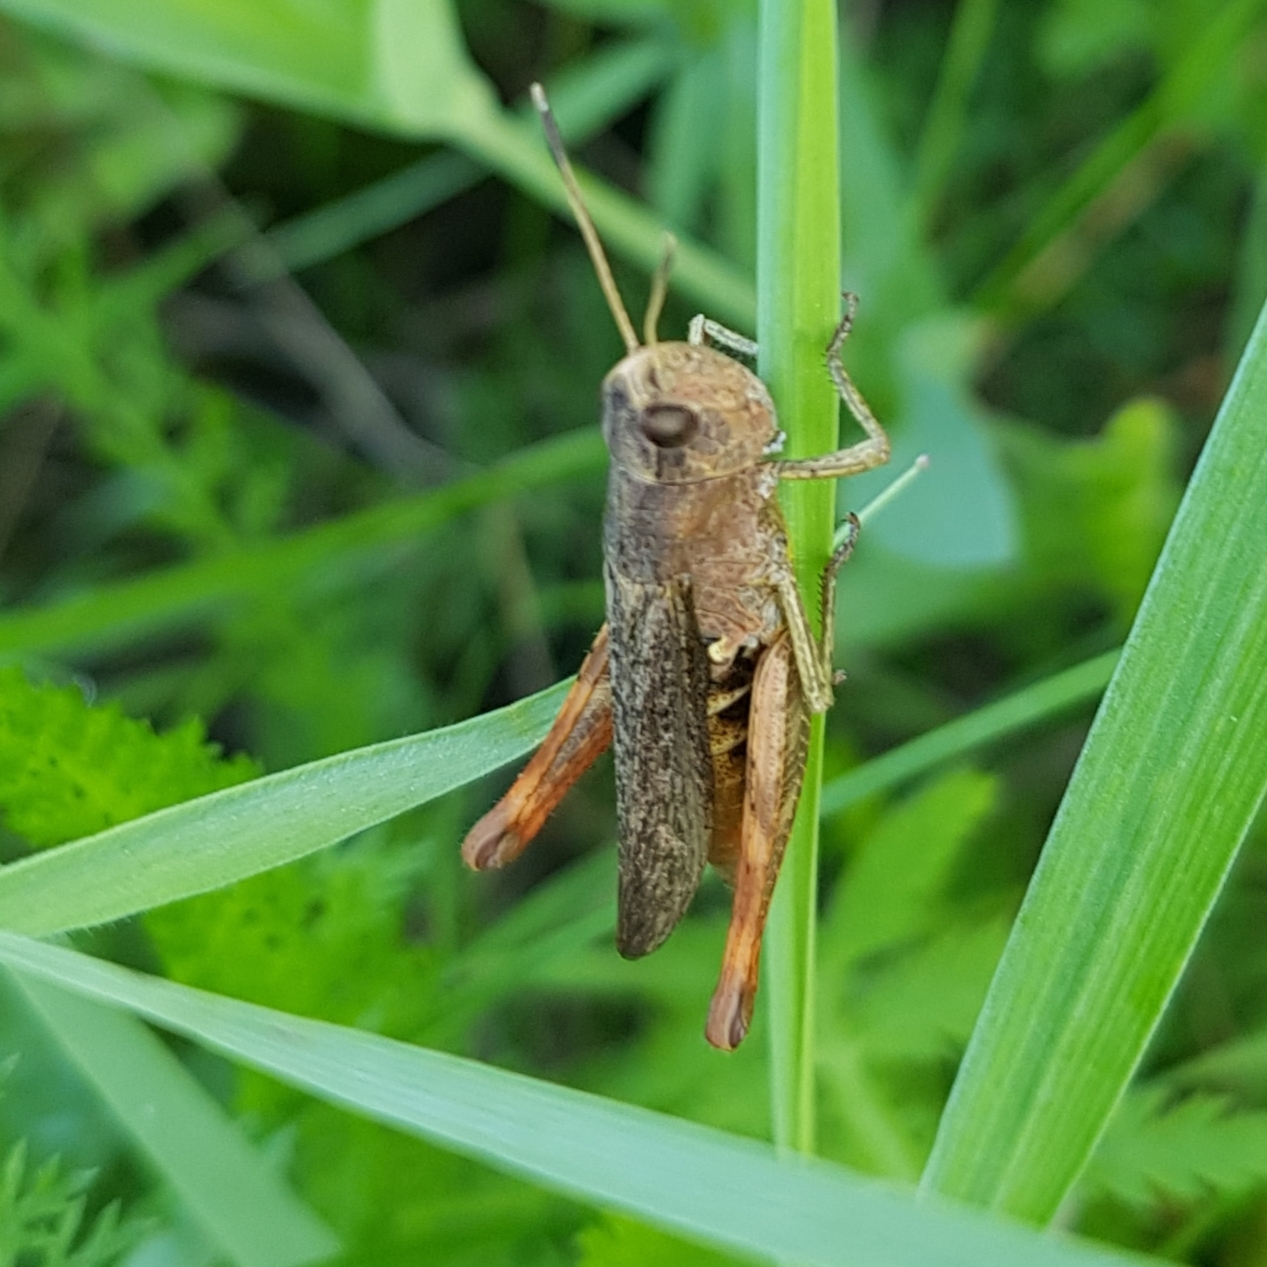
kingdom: Animalia
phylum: Arthropoda
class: Insecta
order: Orthoptera
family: Acrididae
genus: Gomphocerippus
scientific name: Gomphocerippus rufus
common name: Rufous grasshopper
